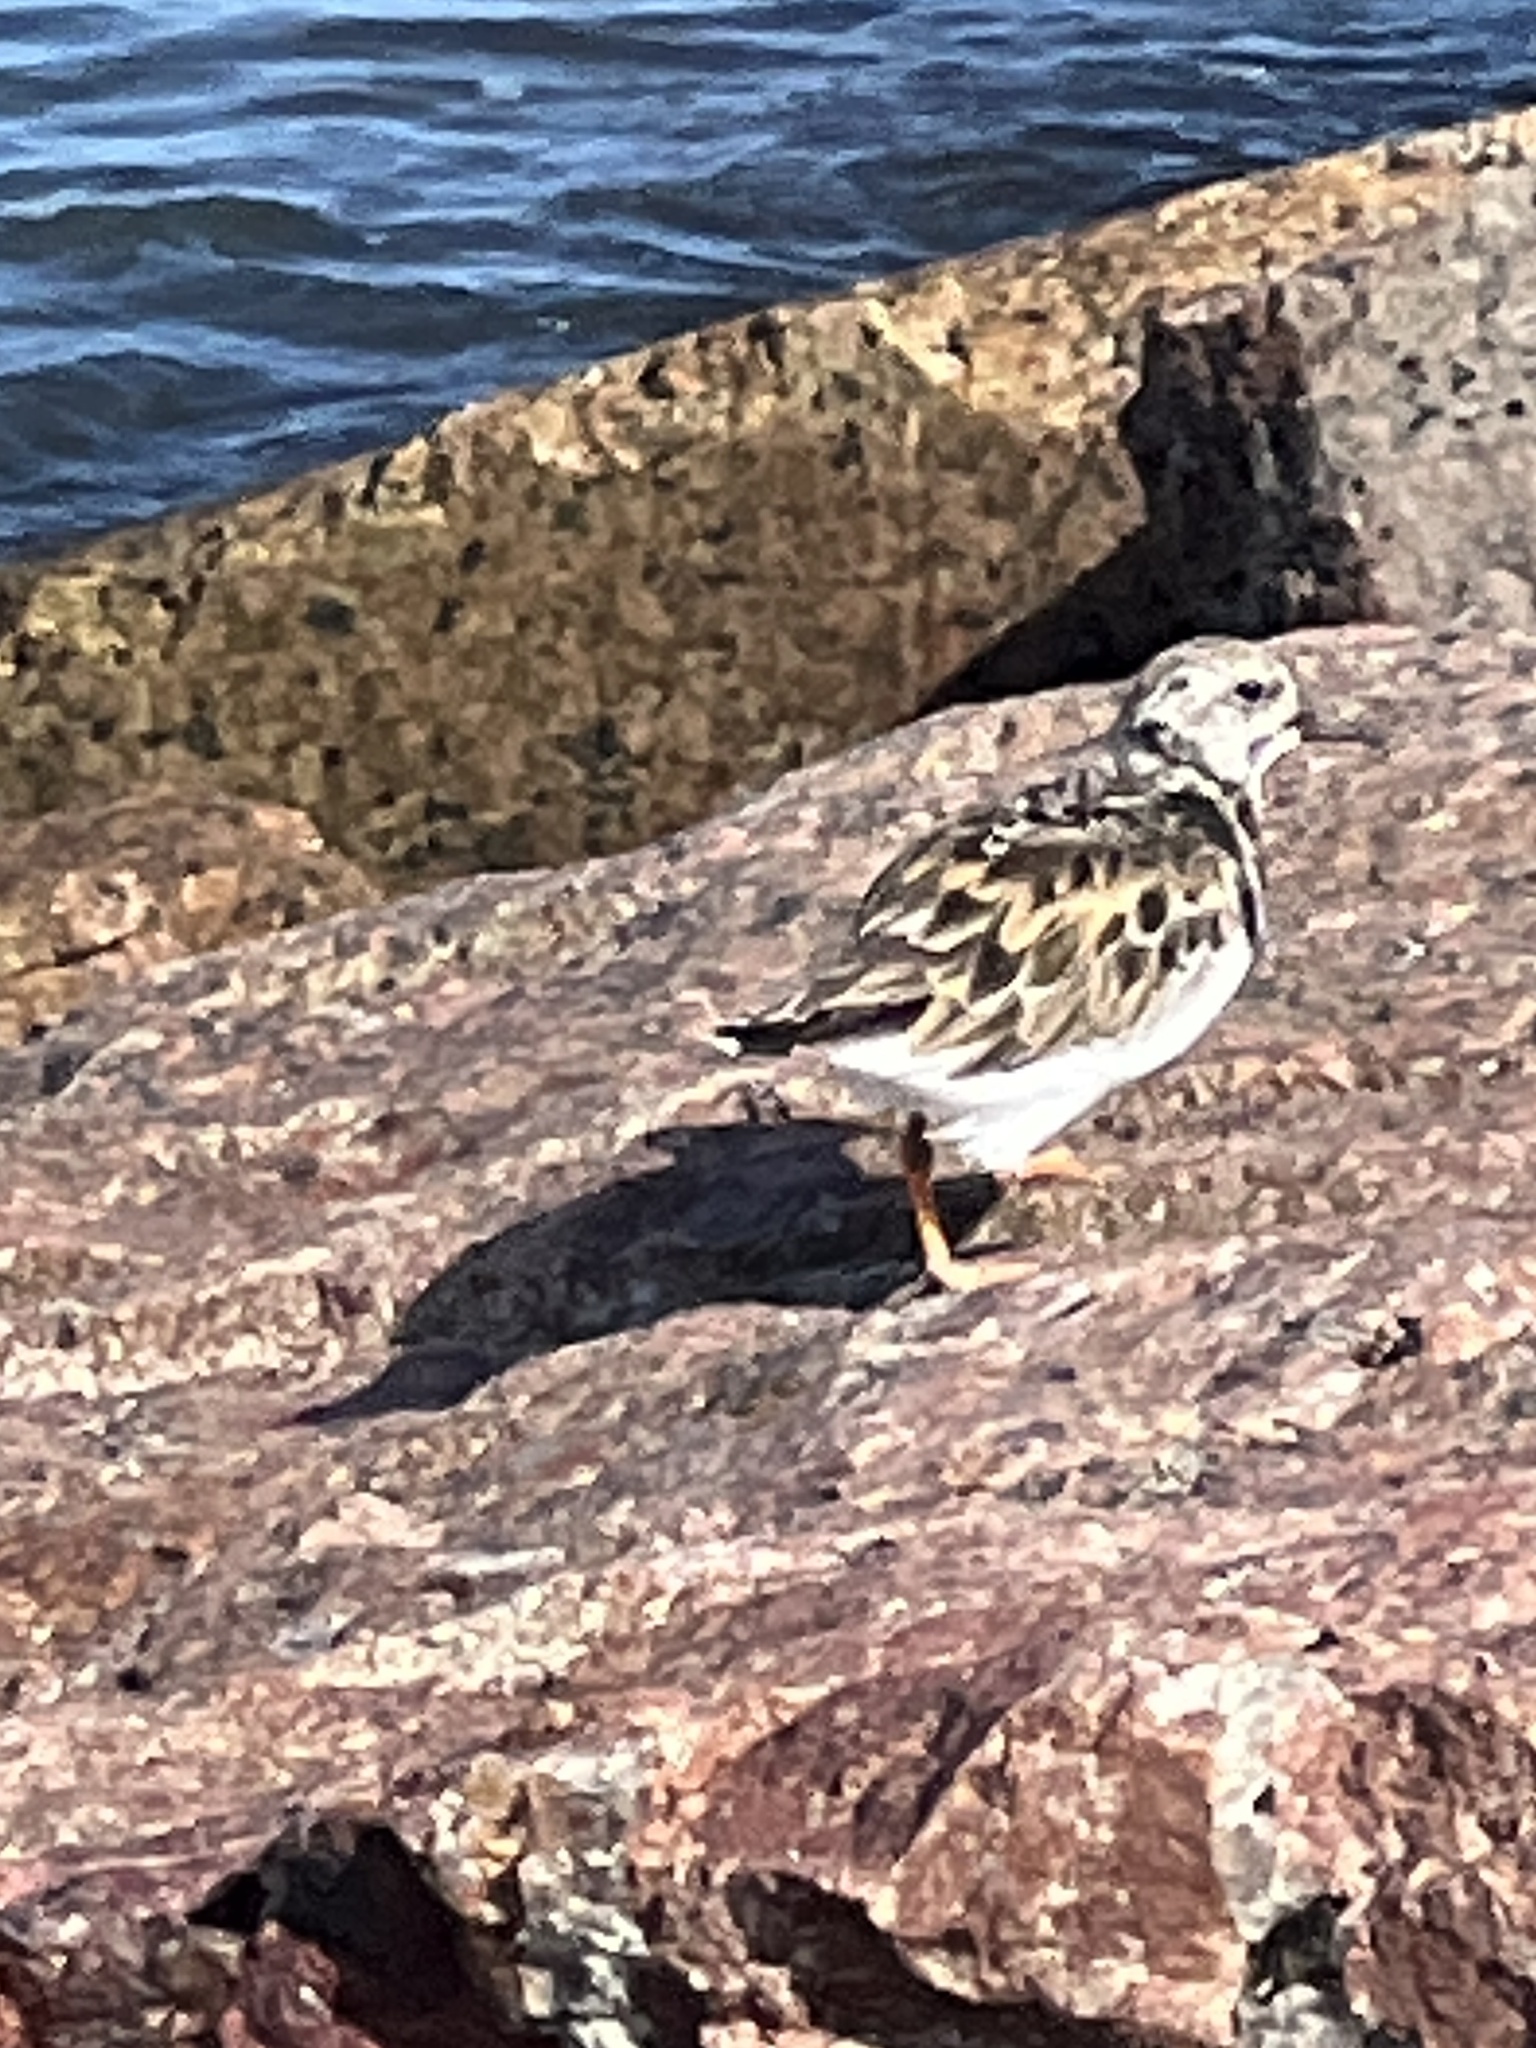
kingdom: Animalia
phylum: Chordata
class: Aves
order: Charadriiformes
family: Scolopacidae
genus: Arenaria
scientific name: Arenaria interpres
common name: Ruddy turnstone
